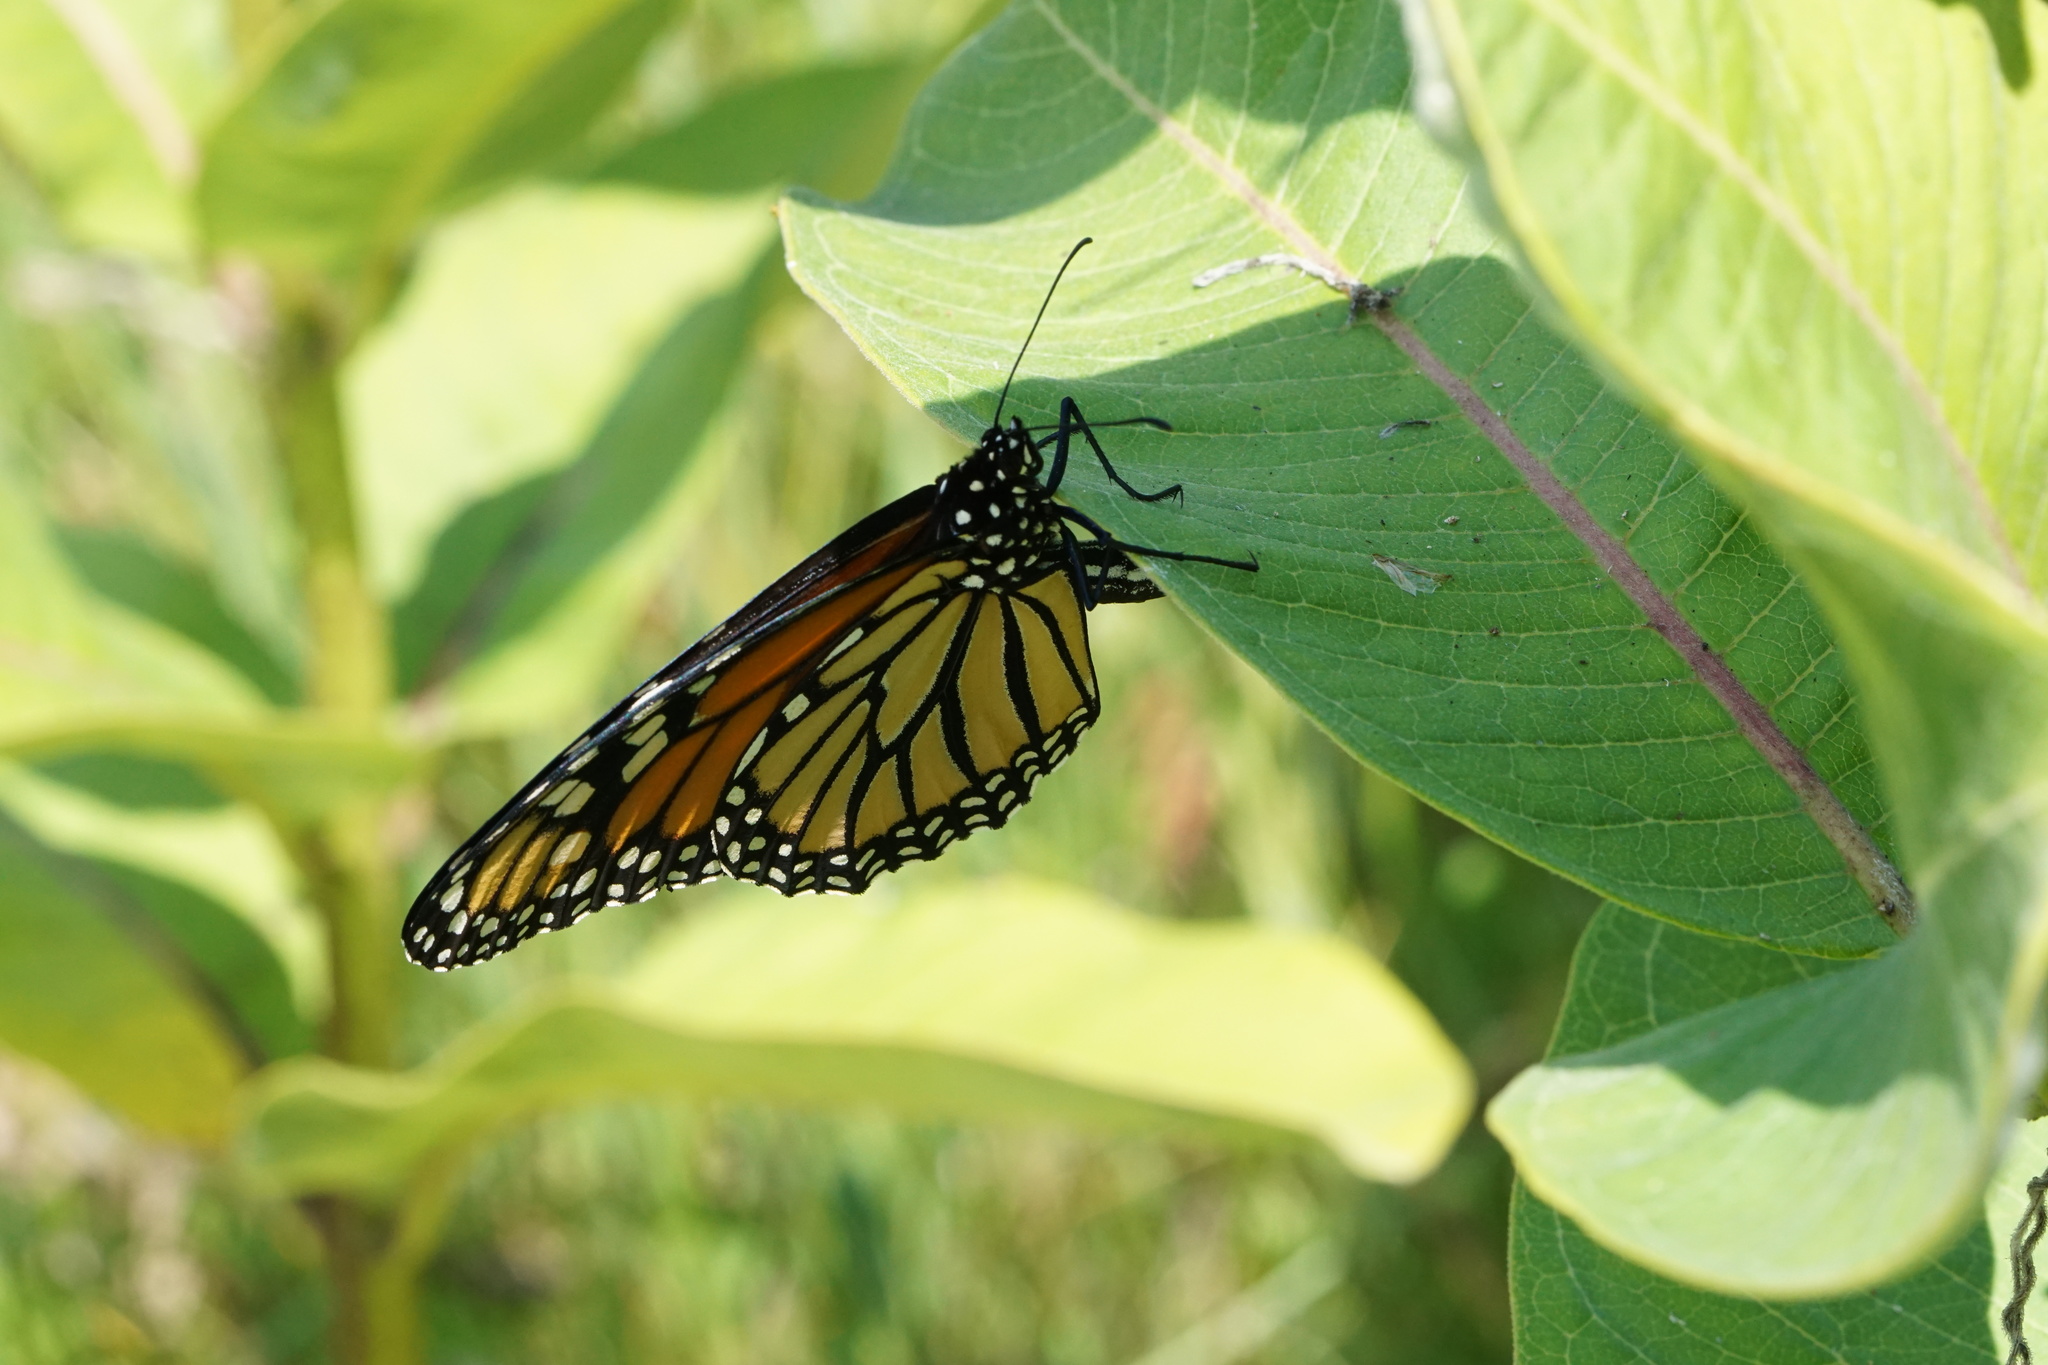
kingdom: Animalia
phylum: Arthropoda
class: Insecta
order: Lepidoptera
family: Nymphalidae
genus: Danaus
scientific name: Danaus plexippus
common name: Monarch
